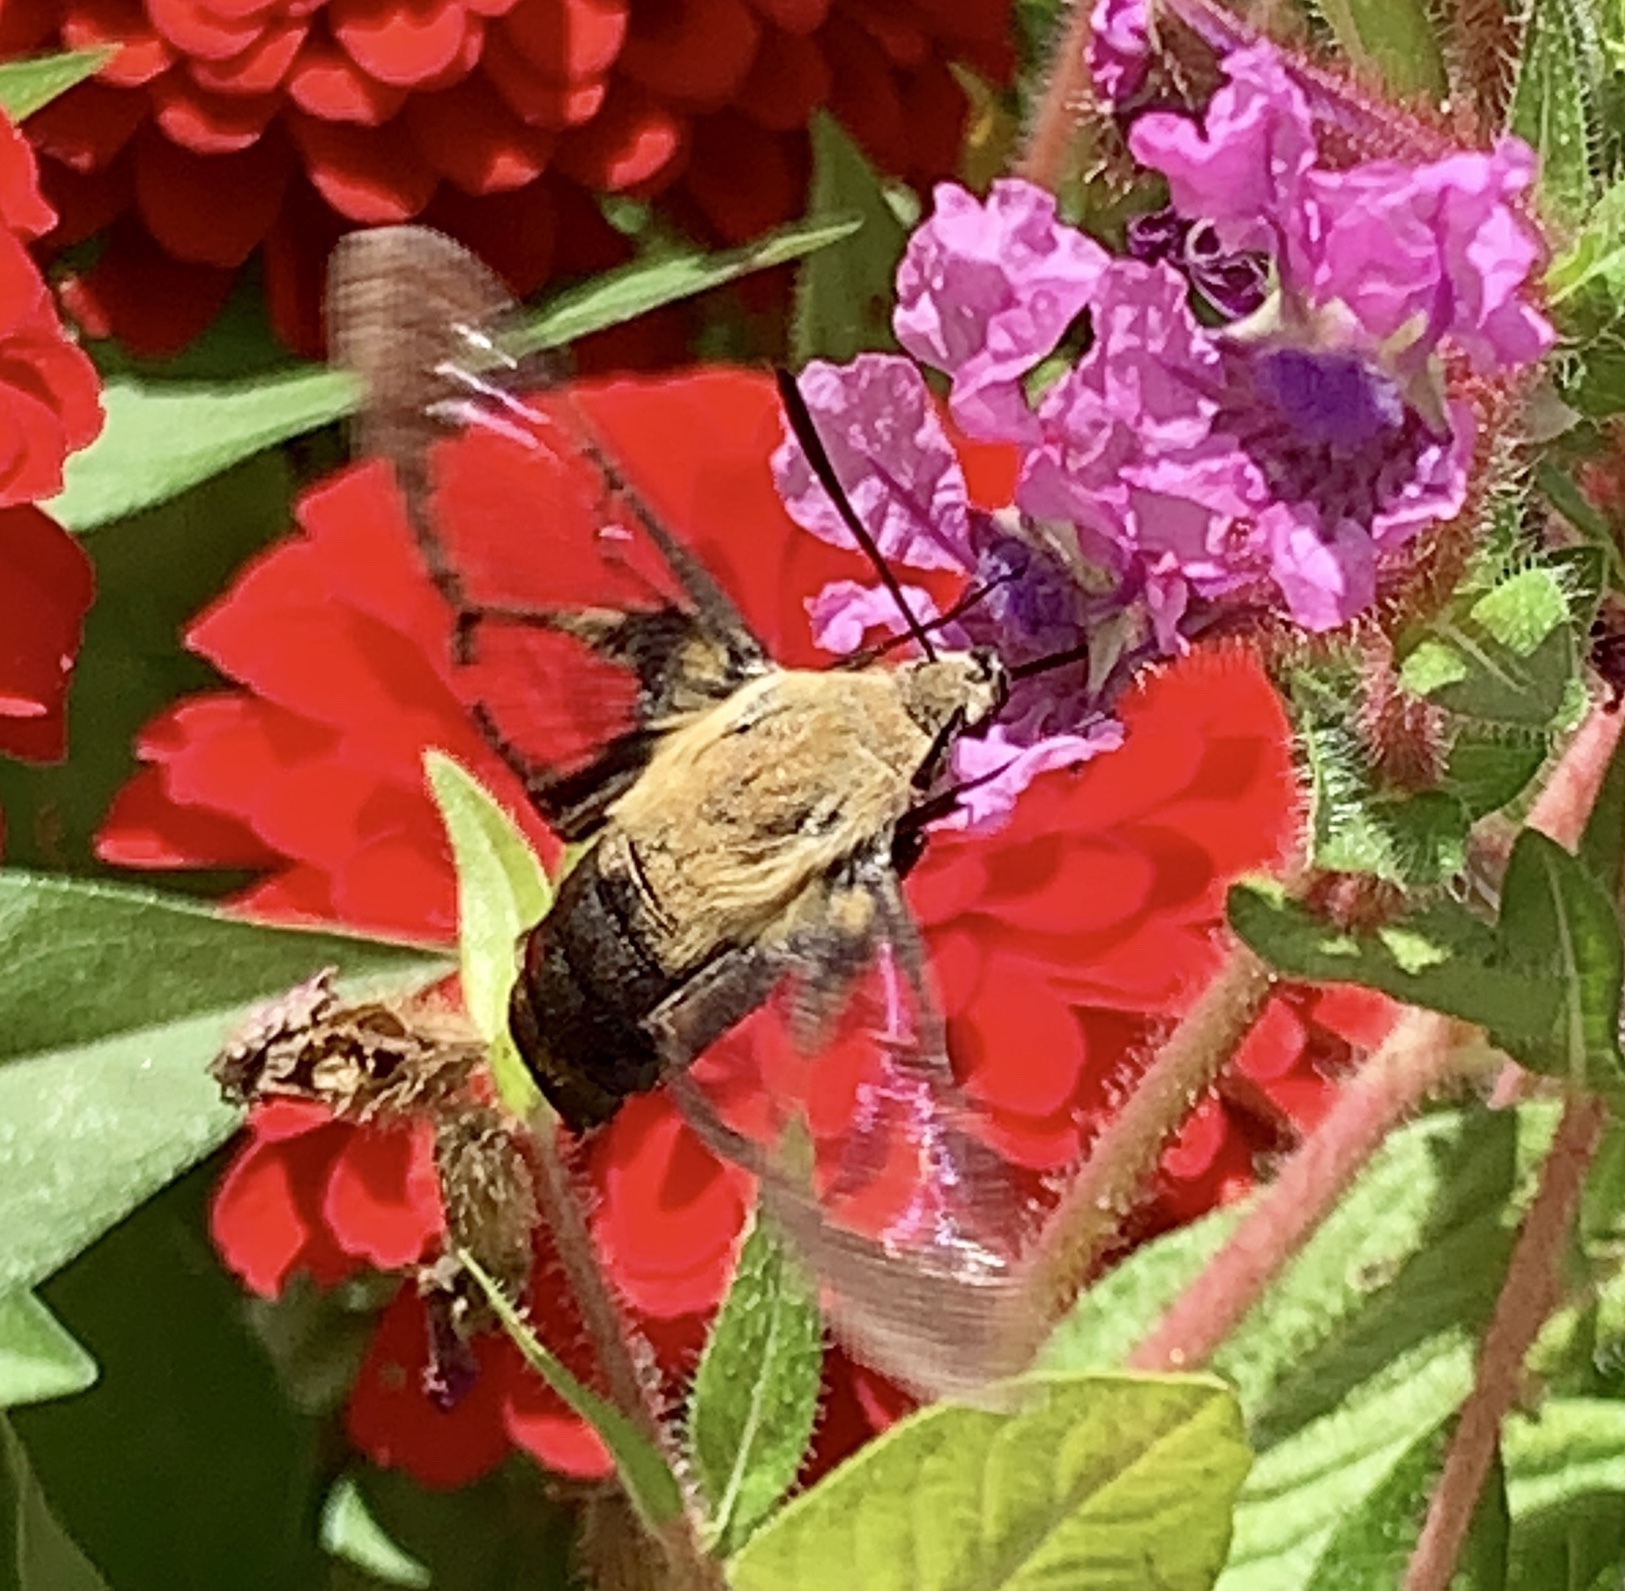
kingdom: Animalia
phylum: Arthropoda
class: Insecta
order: Lepidoptera
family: Sphingidae
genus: Hemaris
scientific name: Hemaris diffinis
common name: Bumblebee moth
